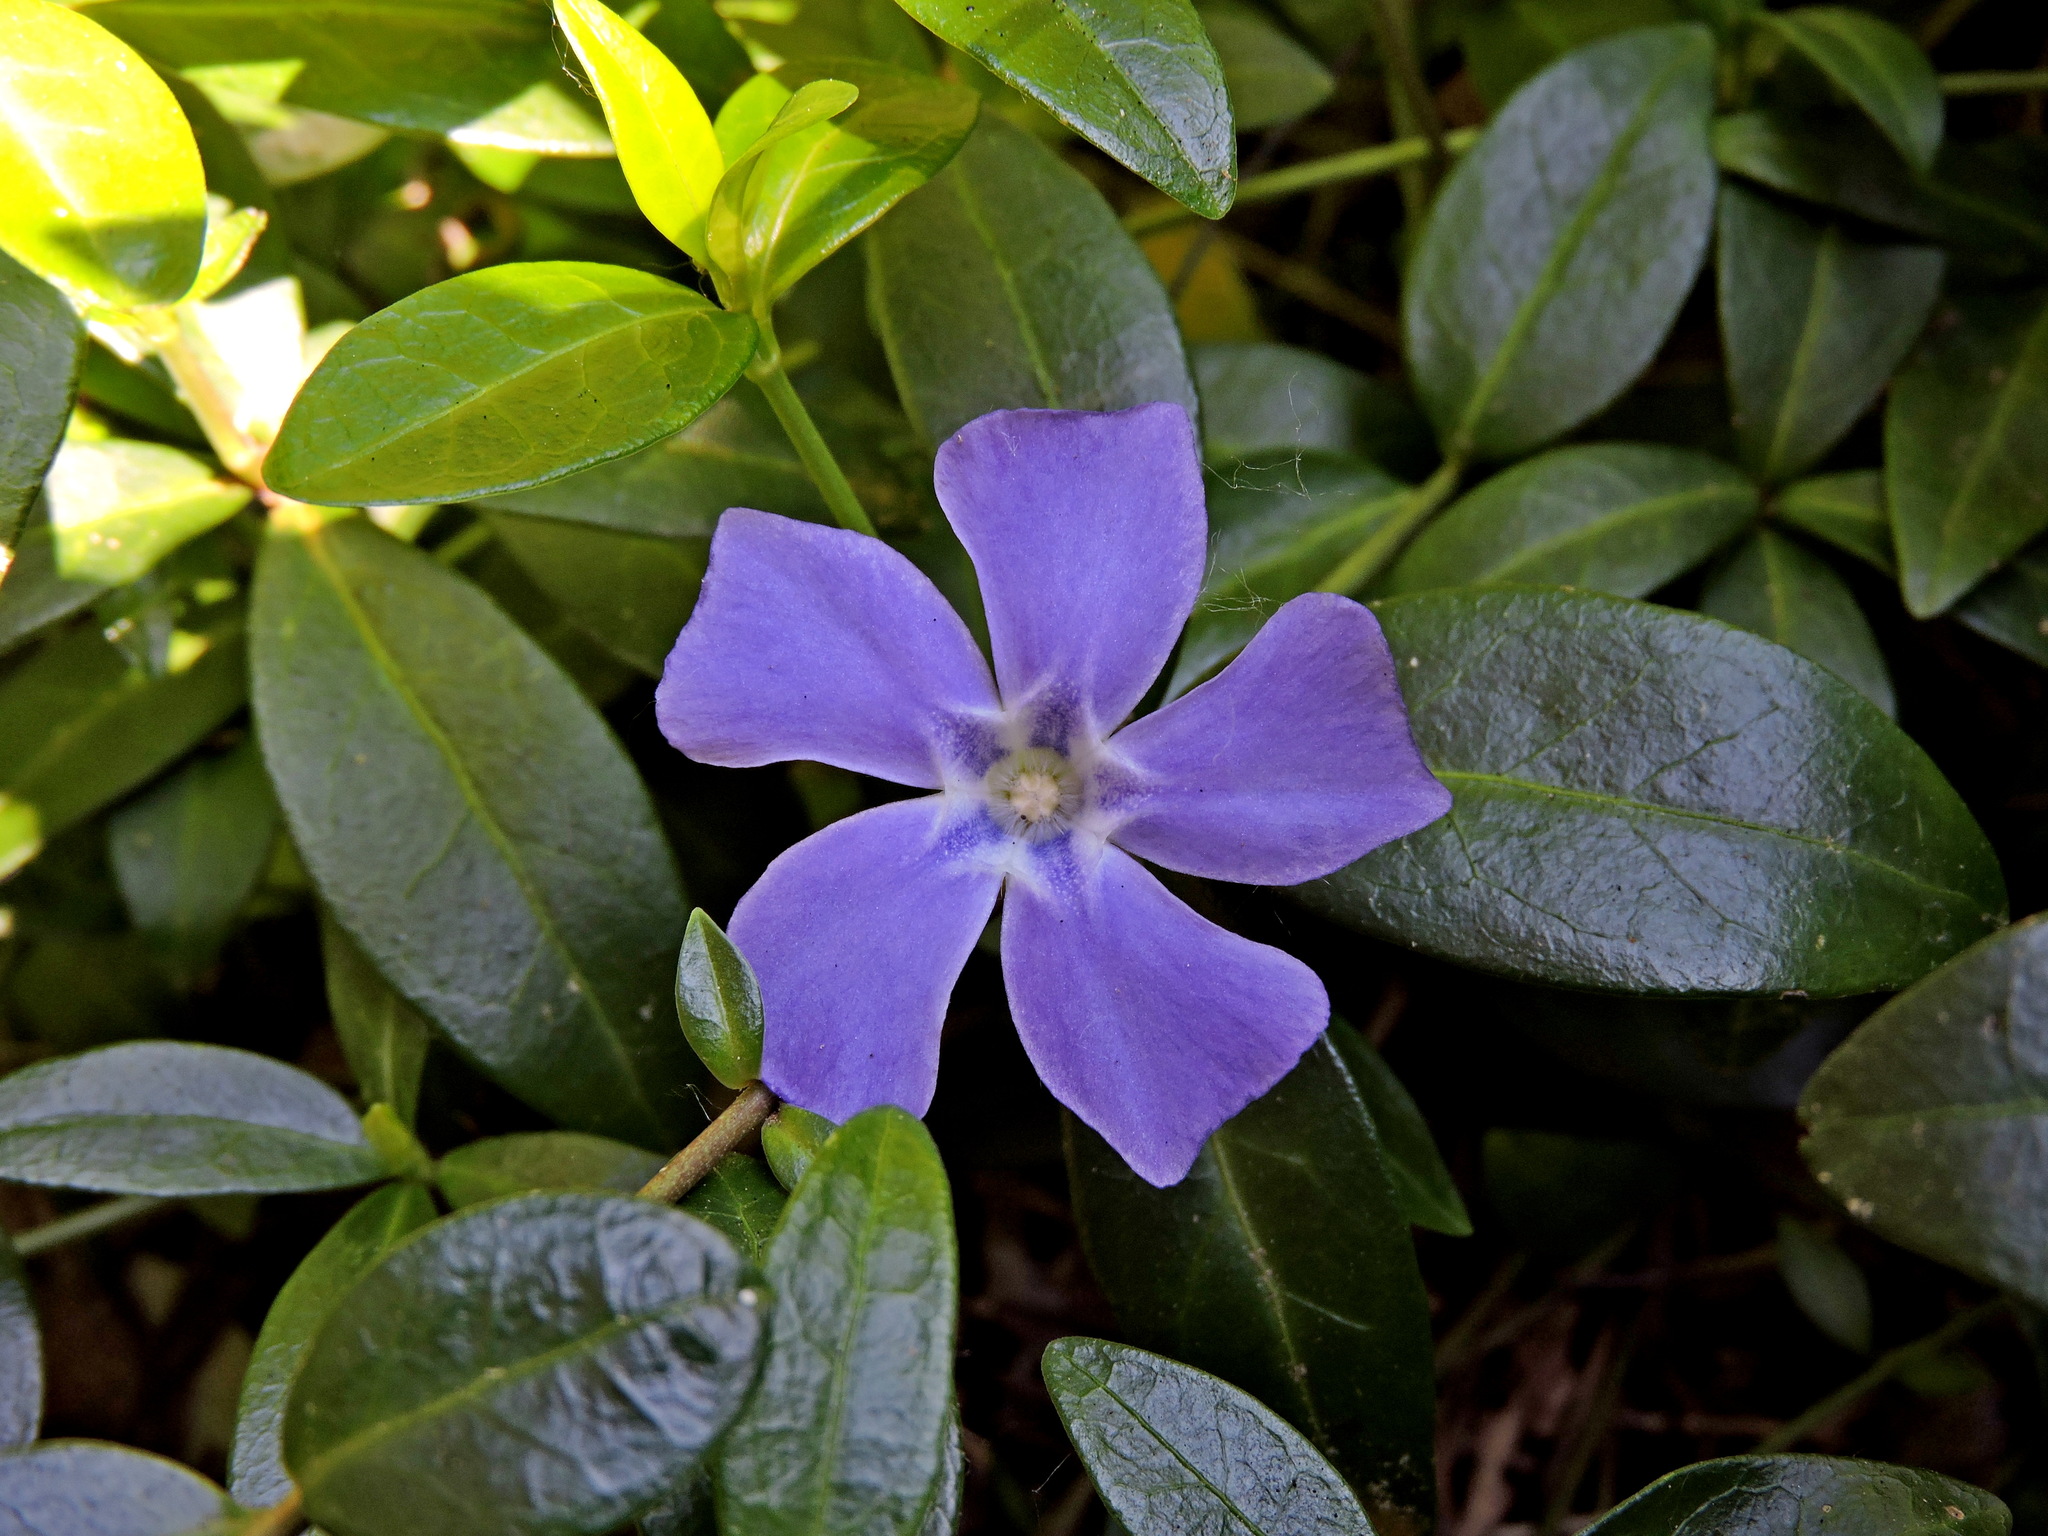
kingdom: Plantae
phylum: Tracheophyta
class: Magnoliopsida
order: Gentianales
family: Apocynaceae
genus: Vinca
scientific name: Vinca minor
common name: Lesser periwinkle
